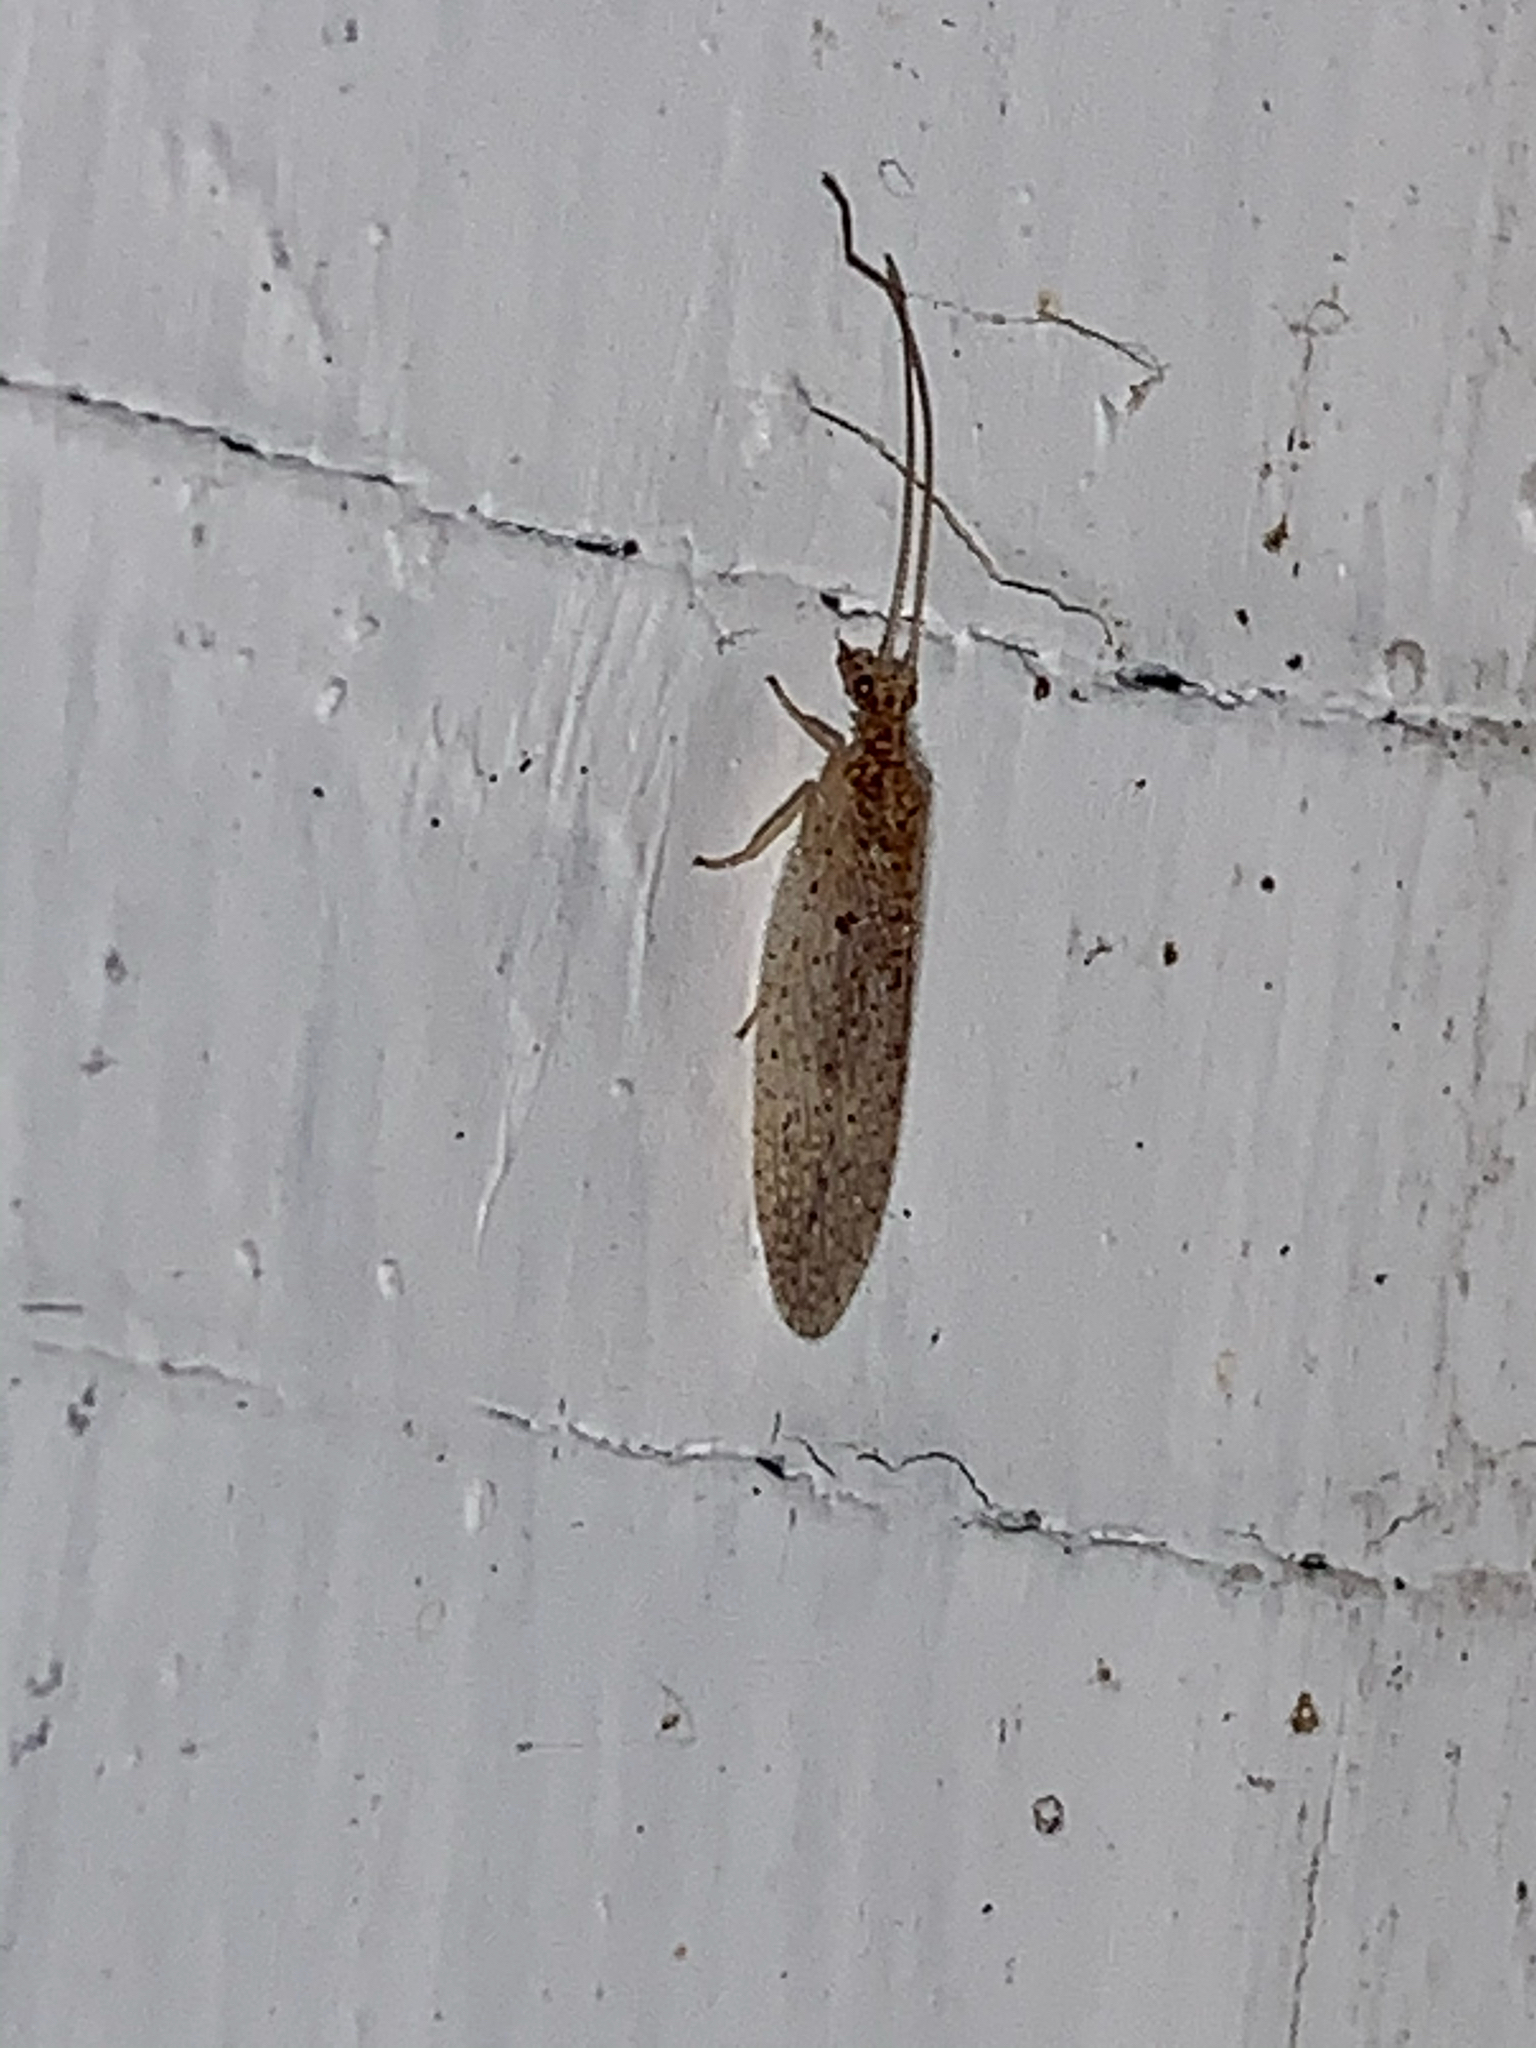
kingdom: Animalia
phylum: Arthropoda
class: Insecta
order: Neuroptera
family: Hemerobiidae
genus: Micromus
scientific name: Micromus subanticus
